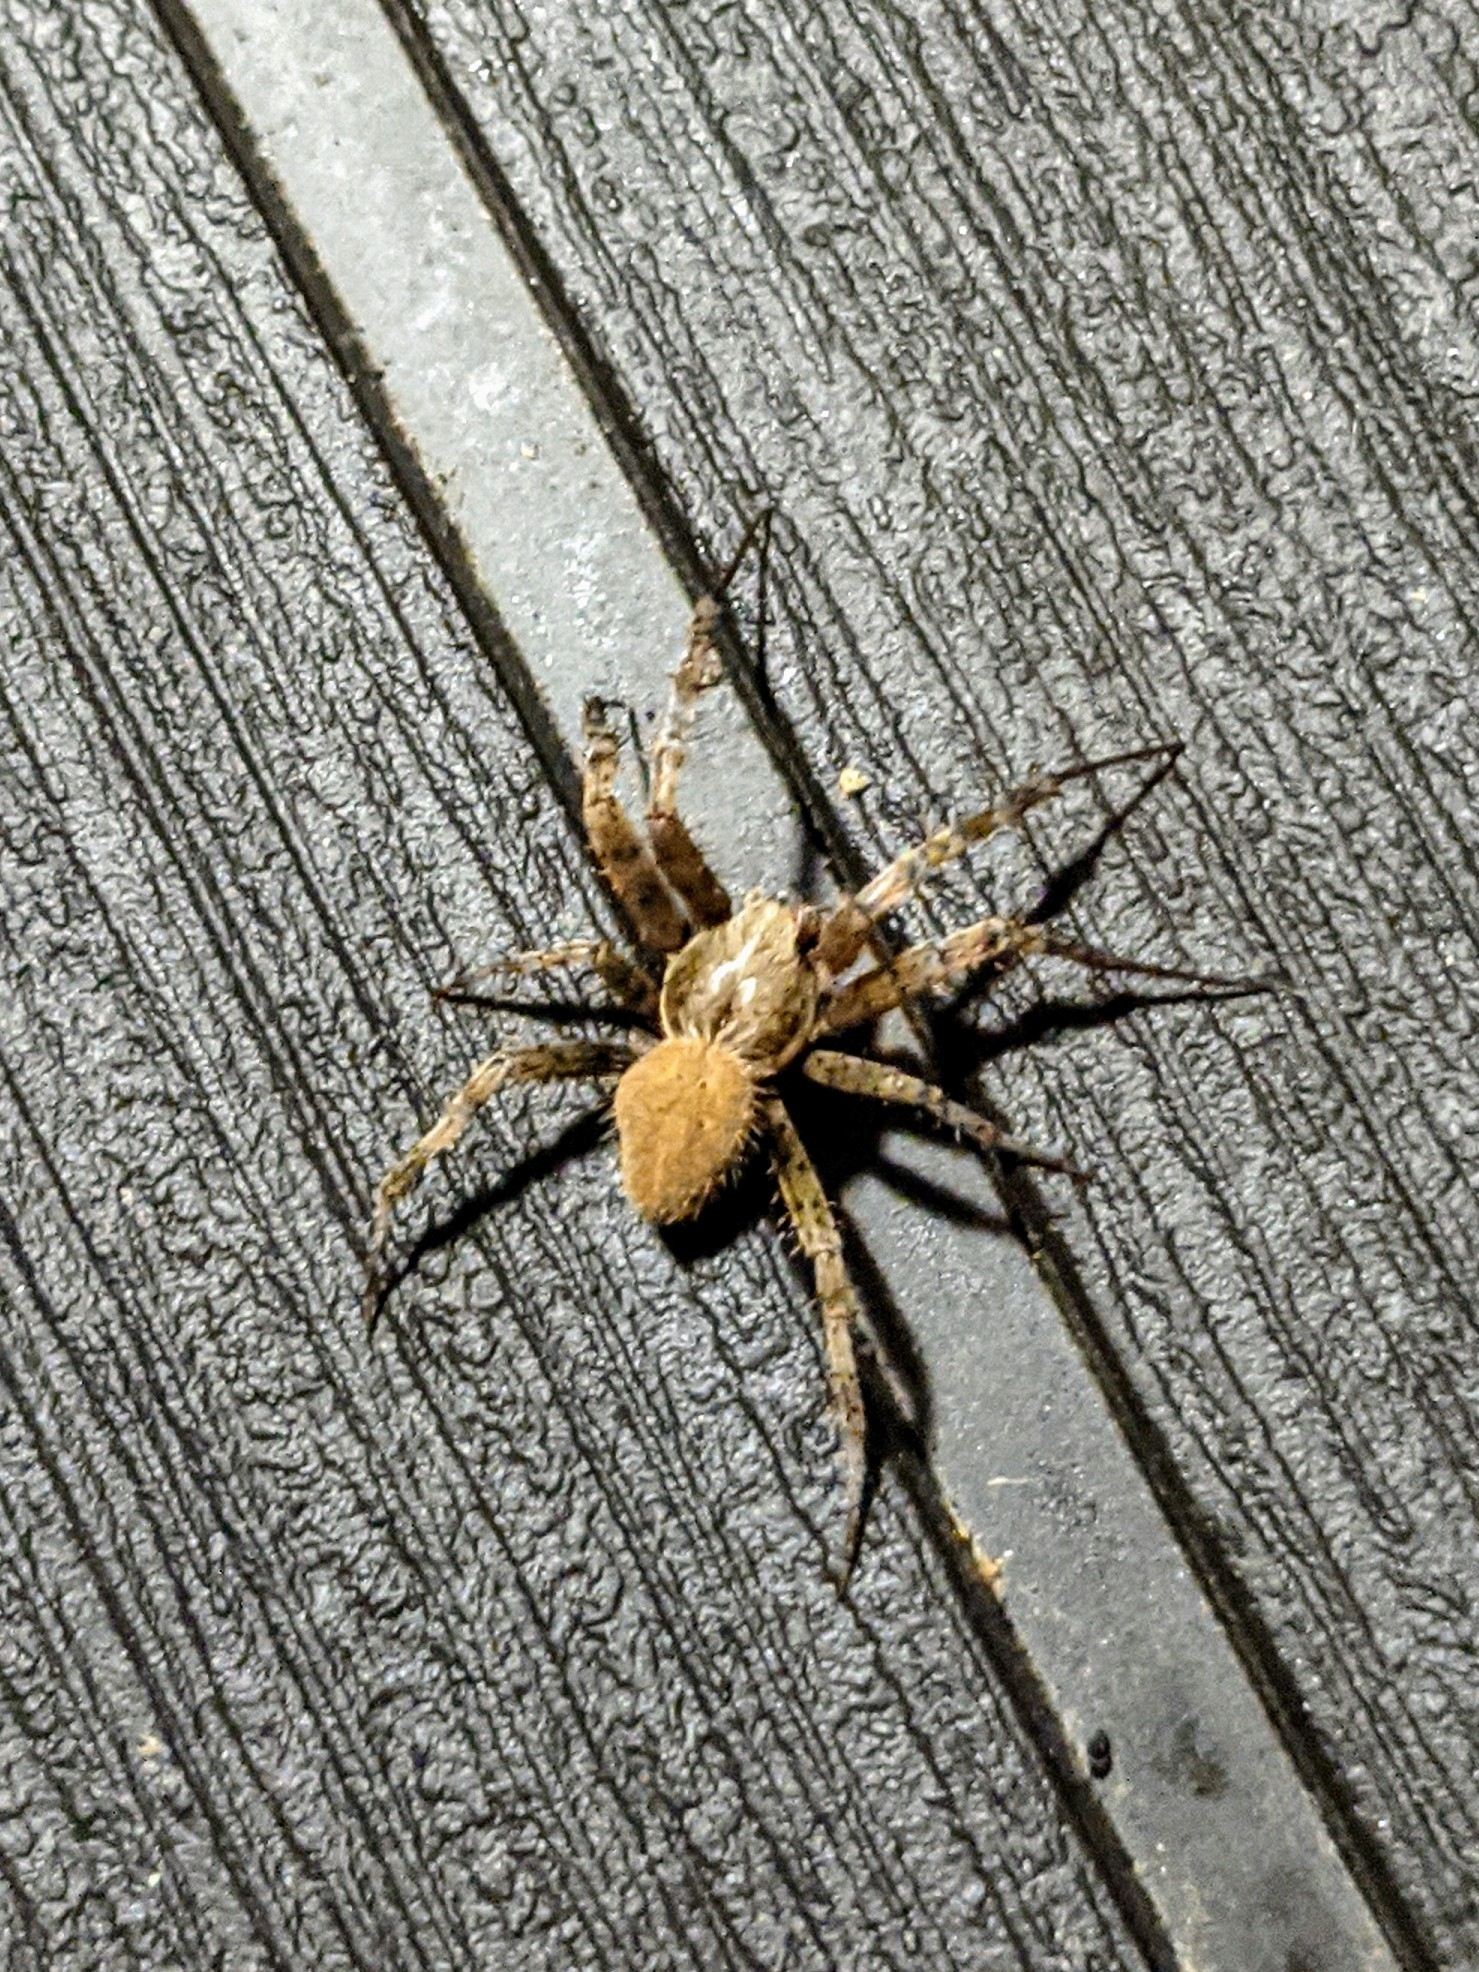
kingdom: Animalia
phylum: Arthropoda
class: Arachnida
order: Araneae
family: Araneidae
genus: Neoscona
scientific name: Neoscona crucifera
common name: Spotted orbweaver
